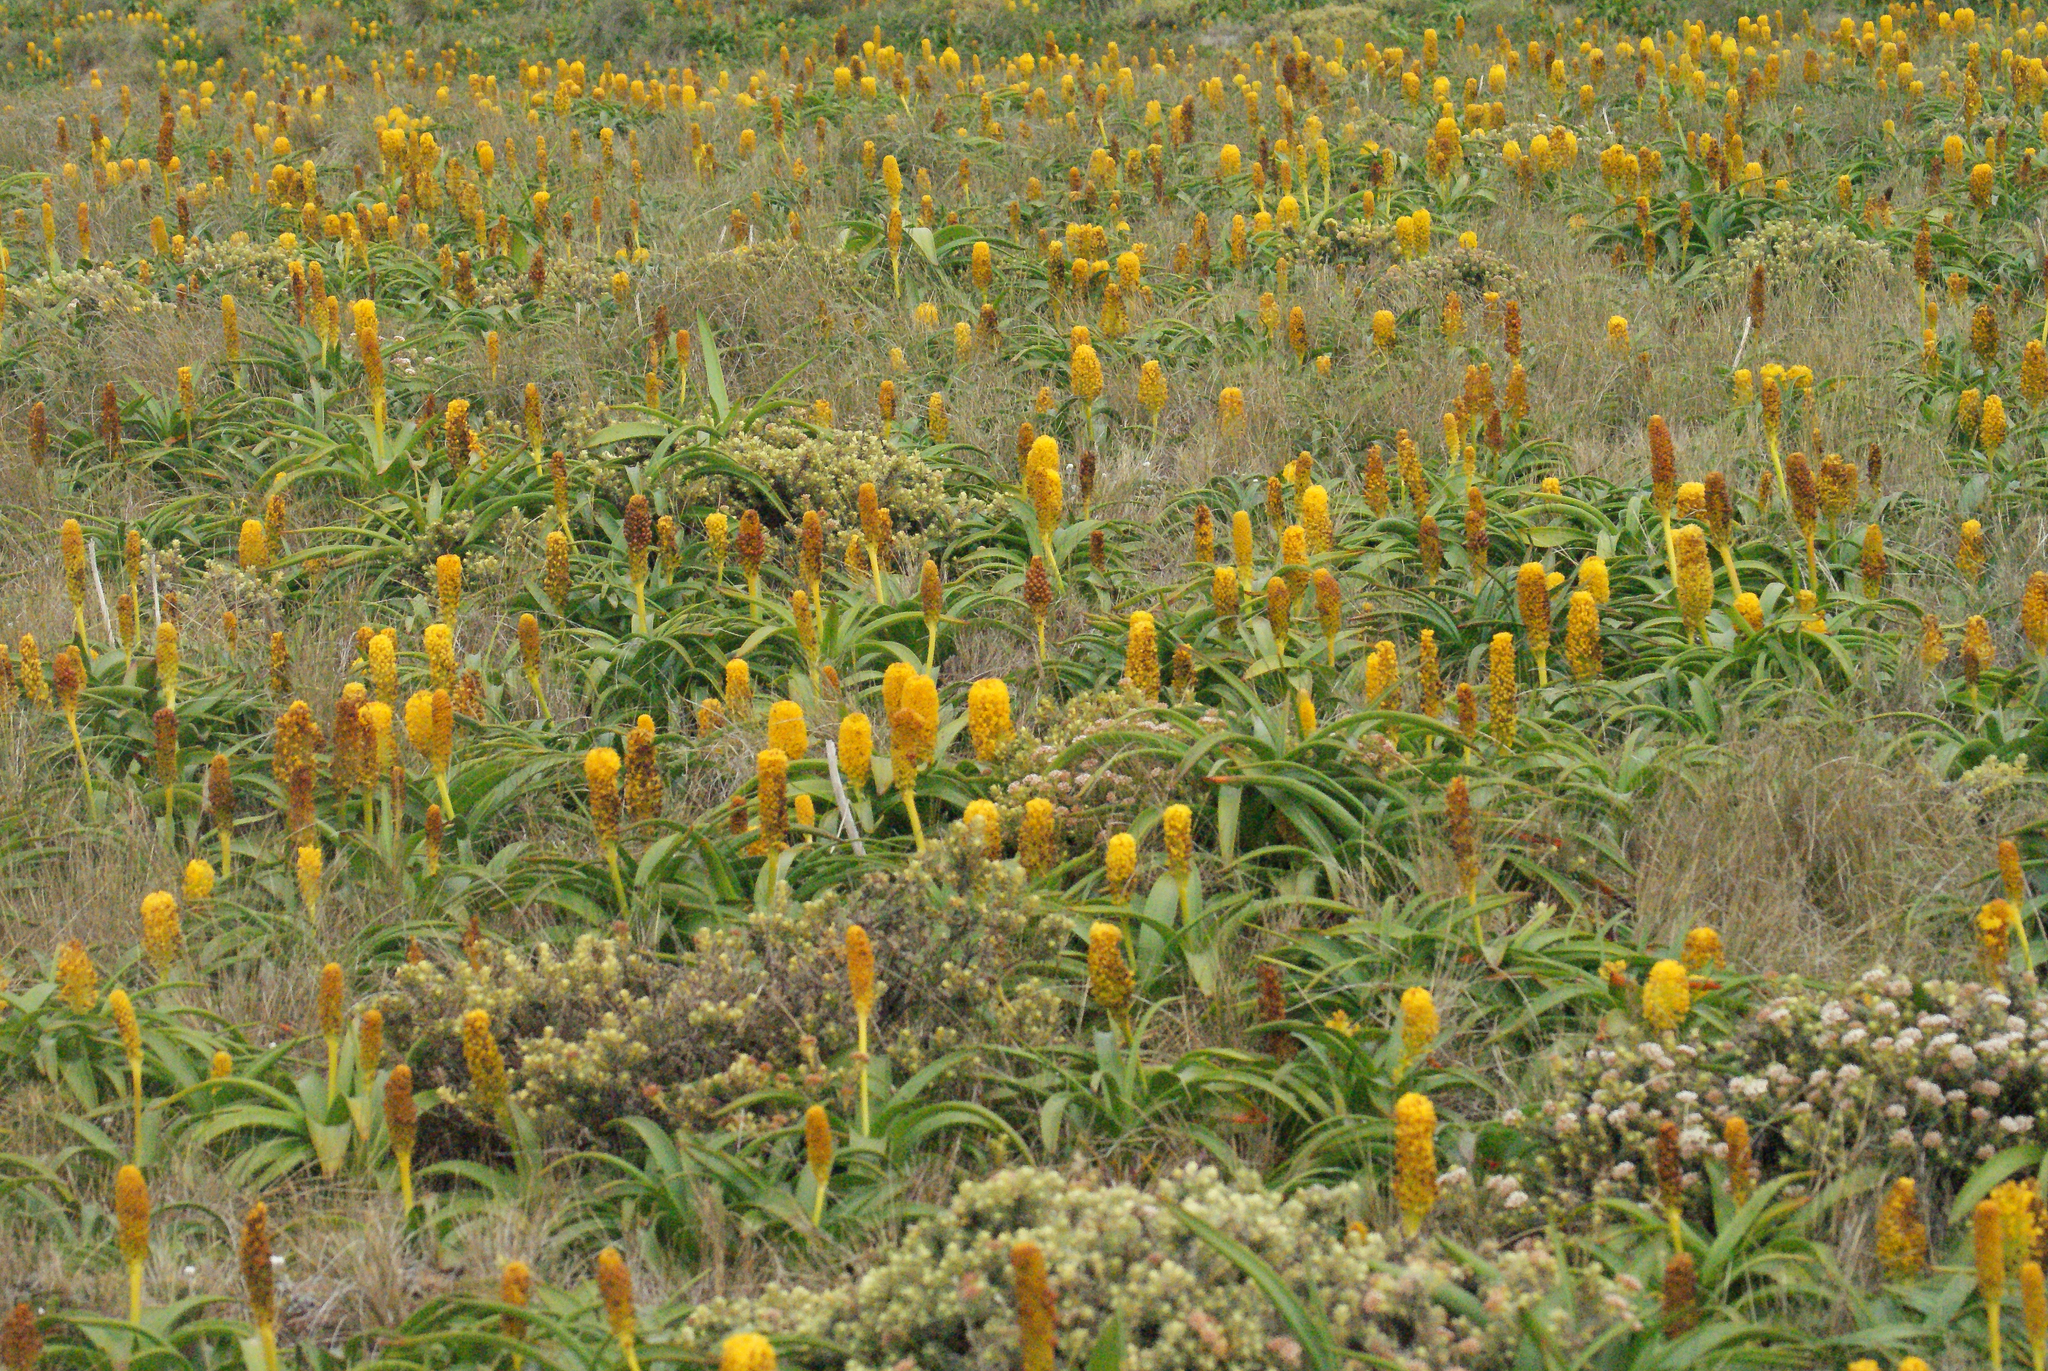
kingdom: Plantae
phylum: Tracheophyta
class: Liliopsida
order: Asparagales
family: Asphodelaceae
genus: Bulbinella
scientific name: Bulbinella rossii
